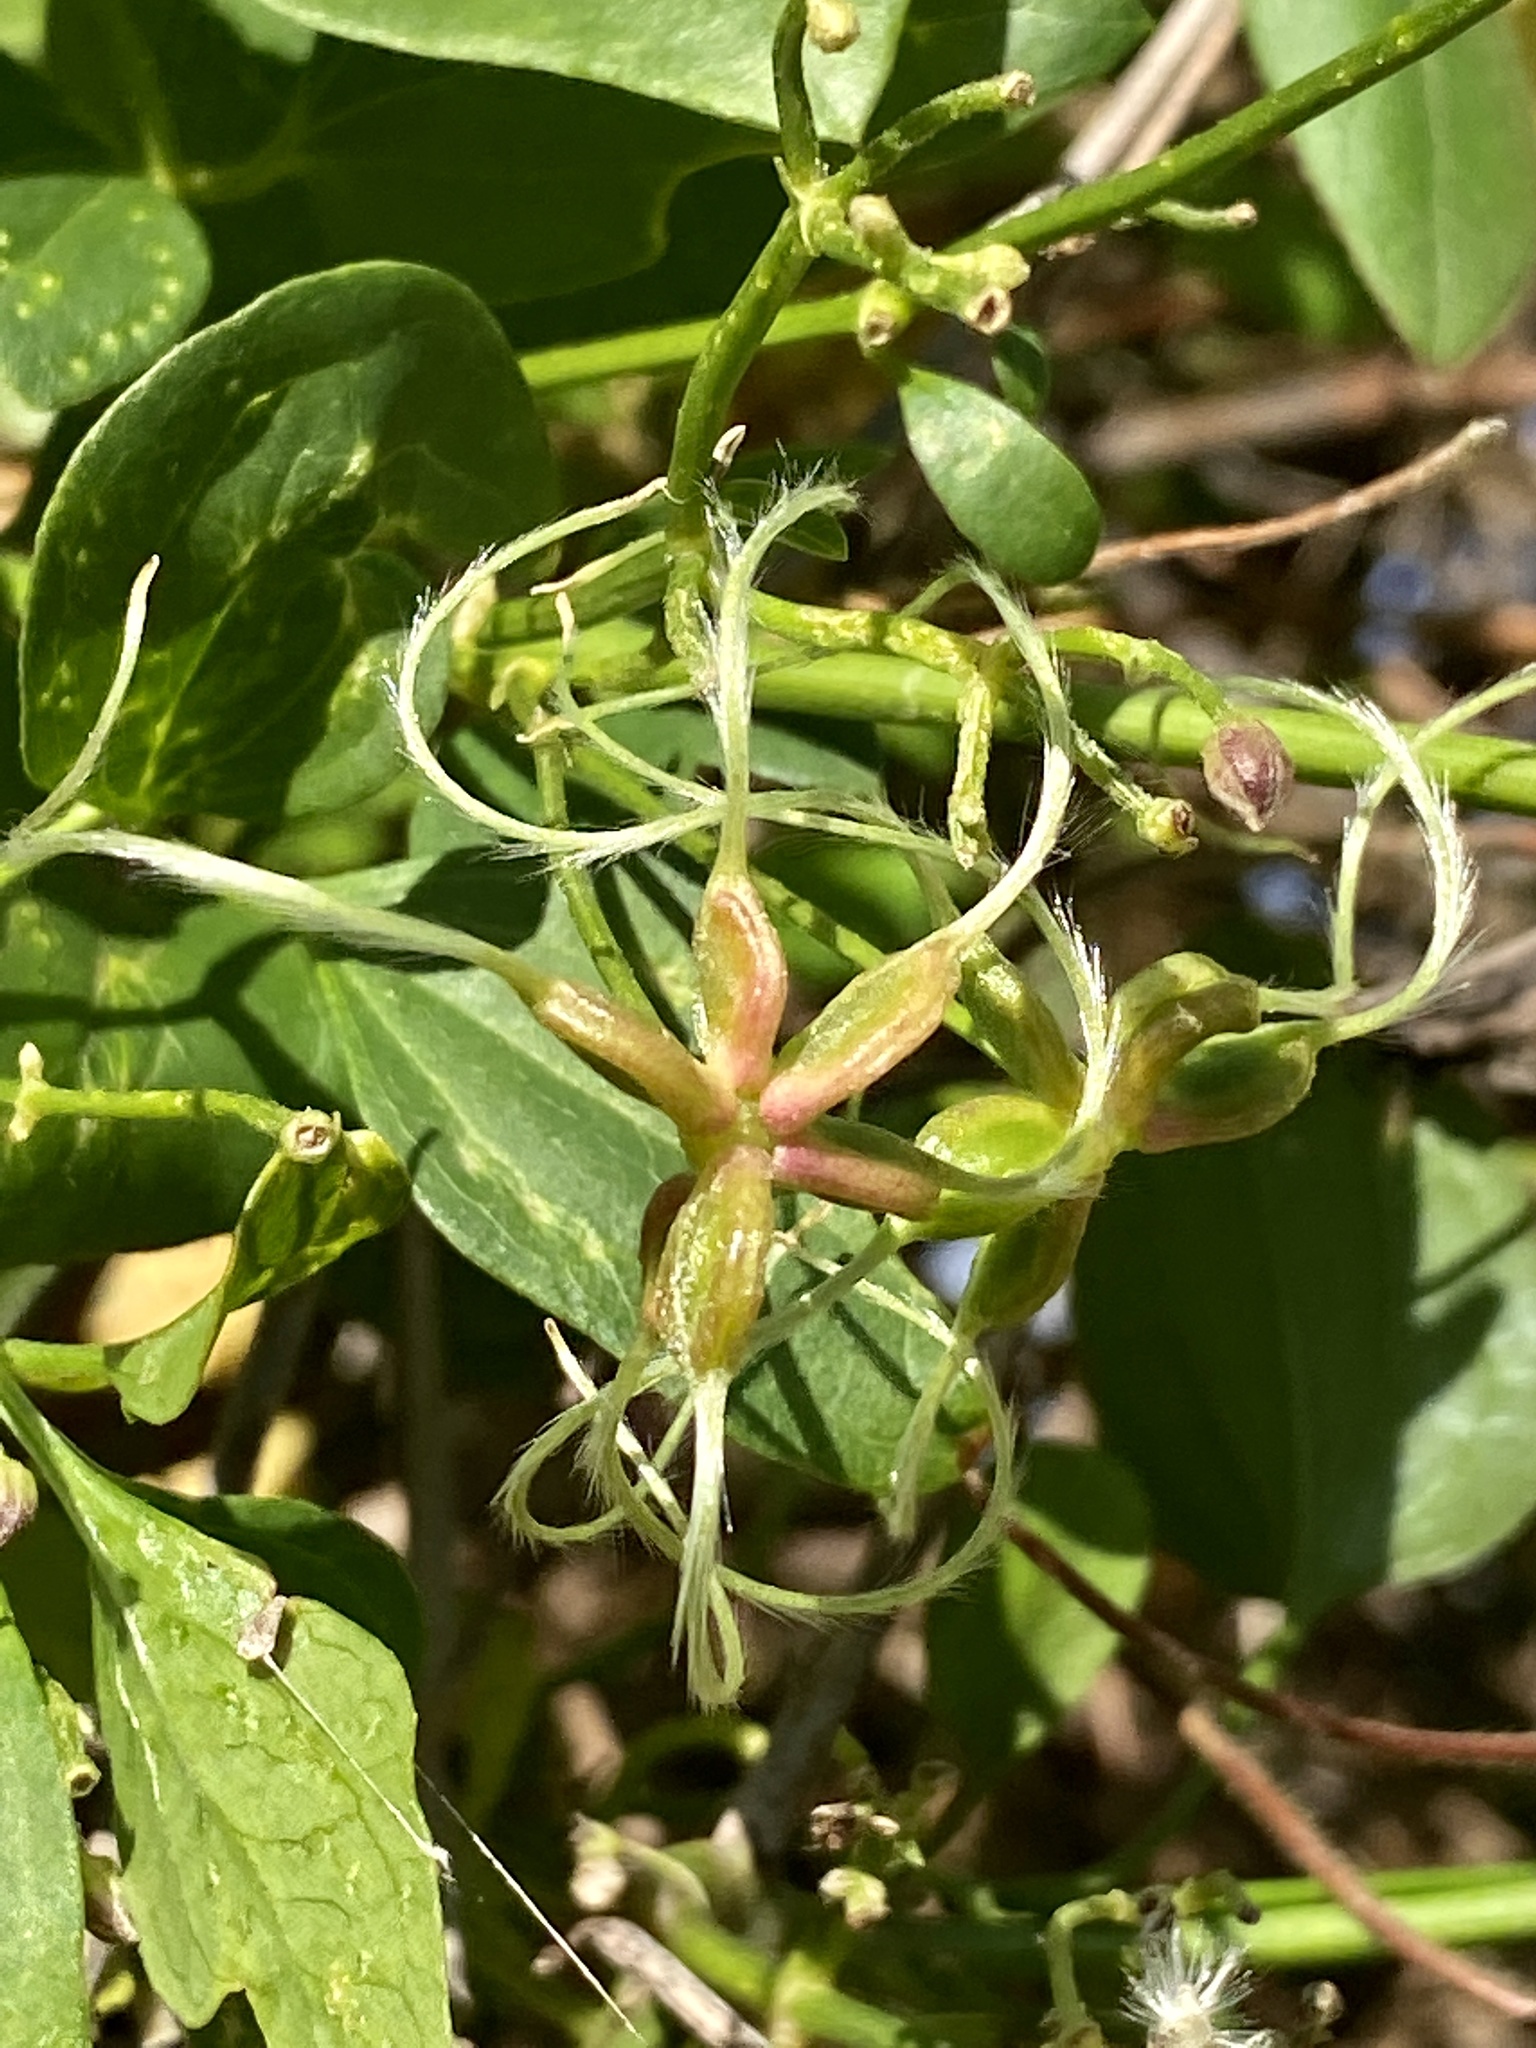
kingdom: Plantae
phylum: Tracheophyta
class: Magnoliopsida
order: Ranunculales
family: Ranunculaceae
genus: Clematis
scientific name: Clematis terniflora
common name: Sweet autumn clematis
